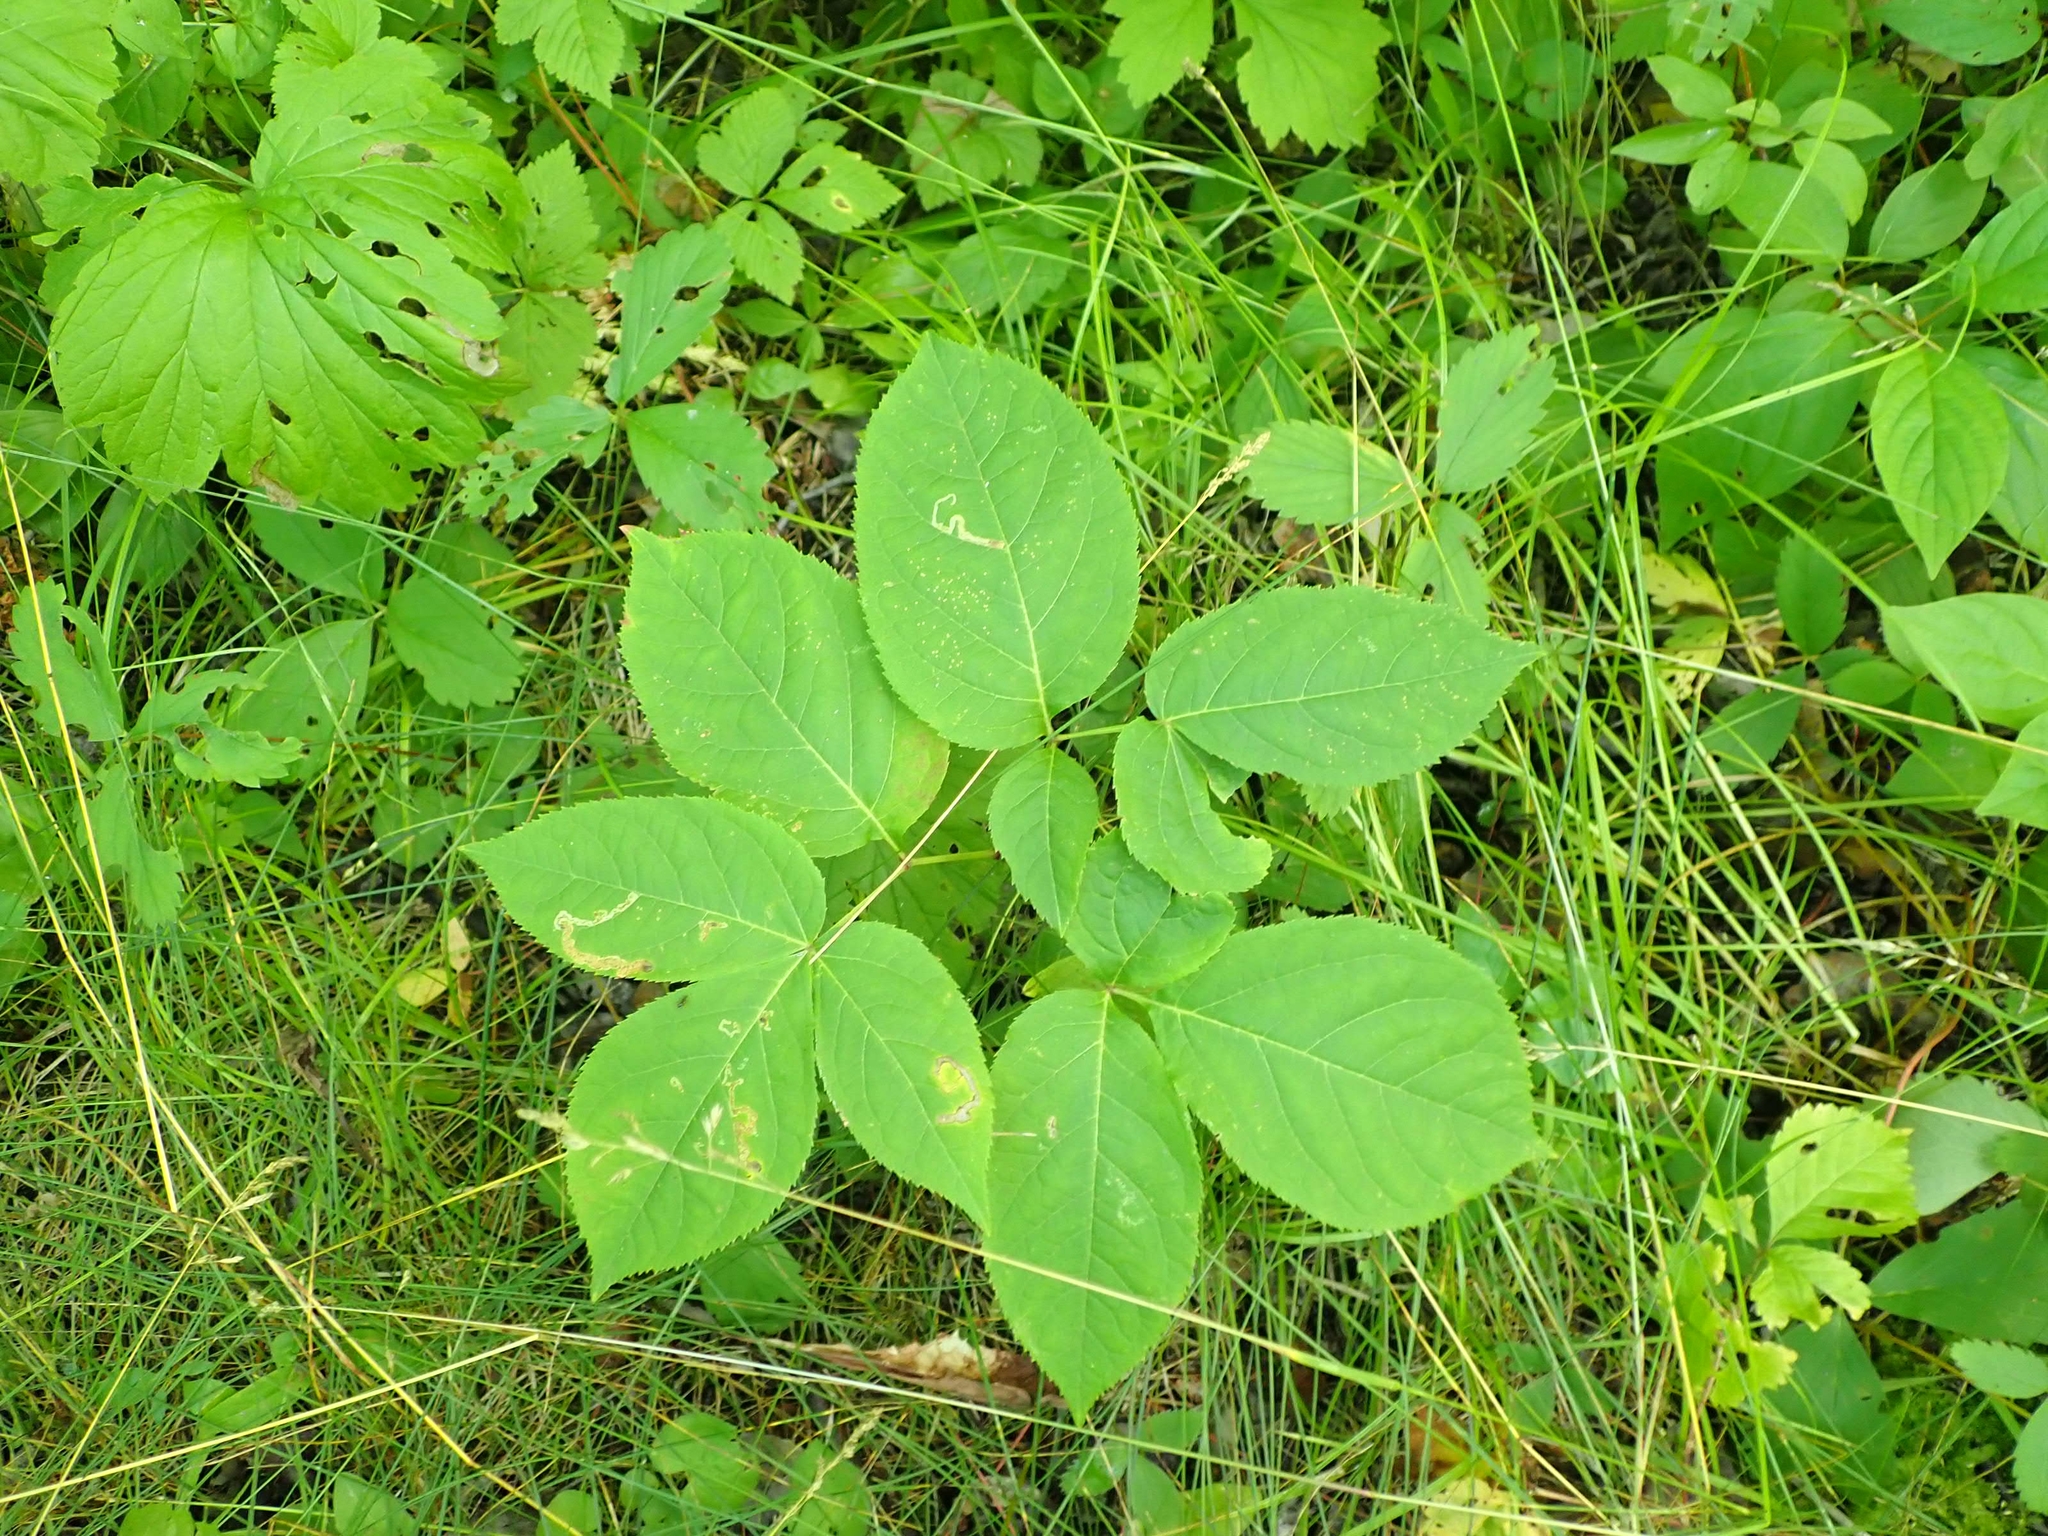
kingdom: Plantae
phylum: Tracheophyta
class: Magnoliopsida
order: Apiales
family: Araliaceae
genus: Aralia
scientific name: Aralia nudicaulis
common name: Wild sarsaparilla
